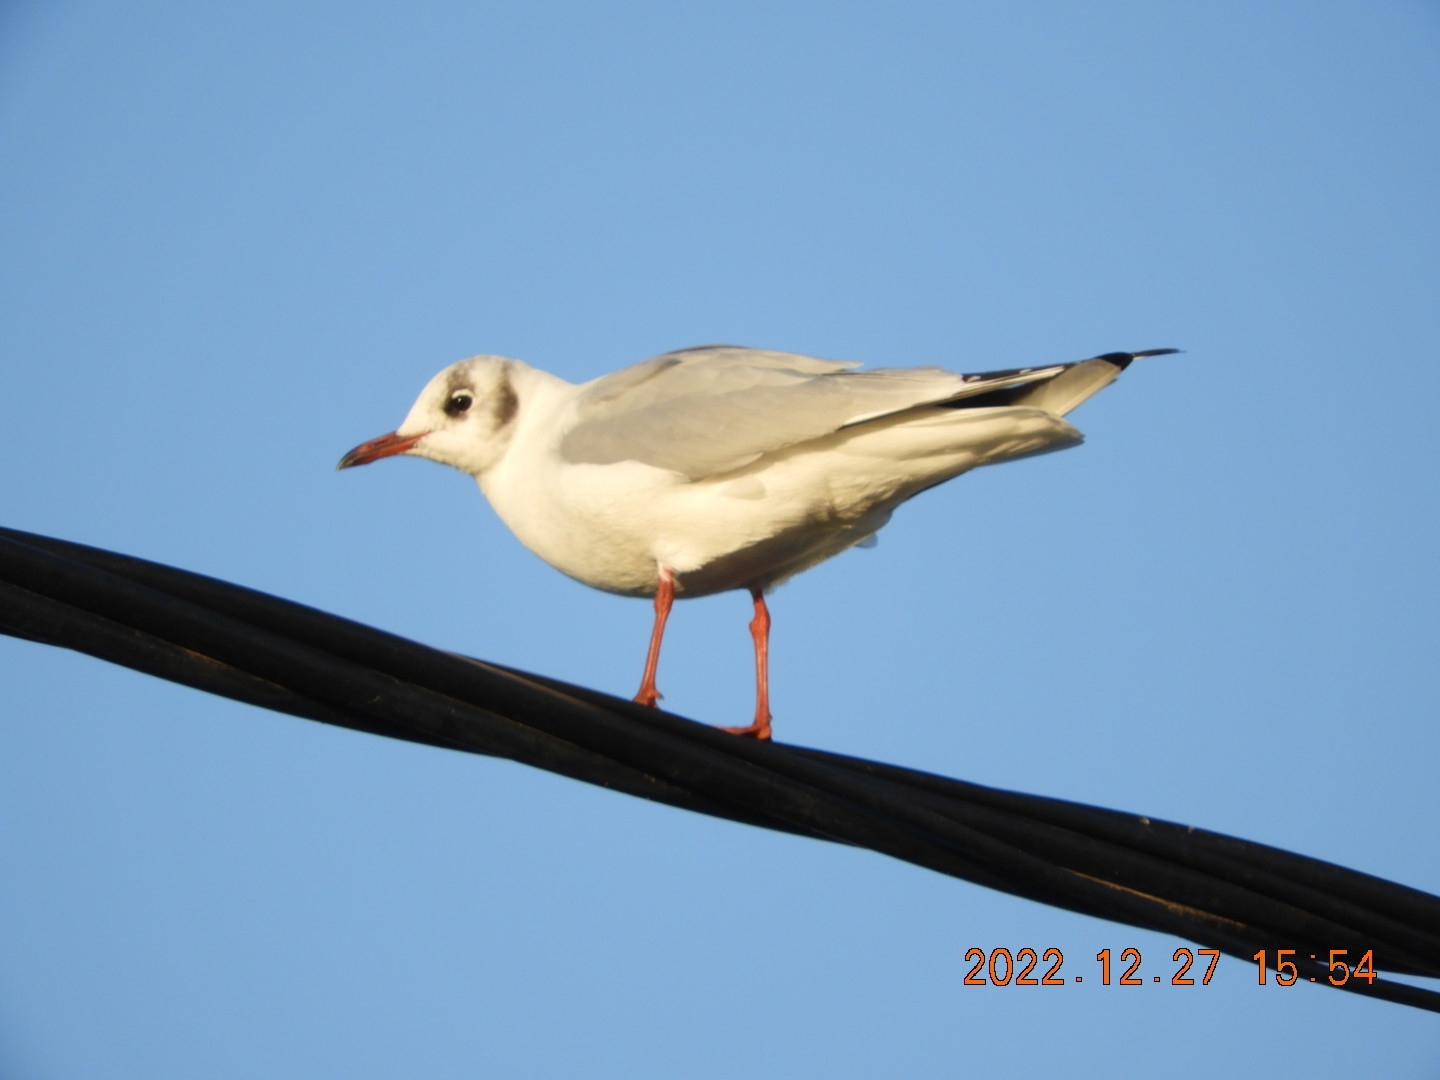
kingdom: Animalia
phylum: Chordata
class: Aves
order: Charadriiformes
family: Laridae
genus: Chroicocephalus
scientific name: Chroicocephalus ridibundus
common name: Black-headed gull
